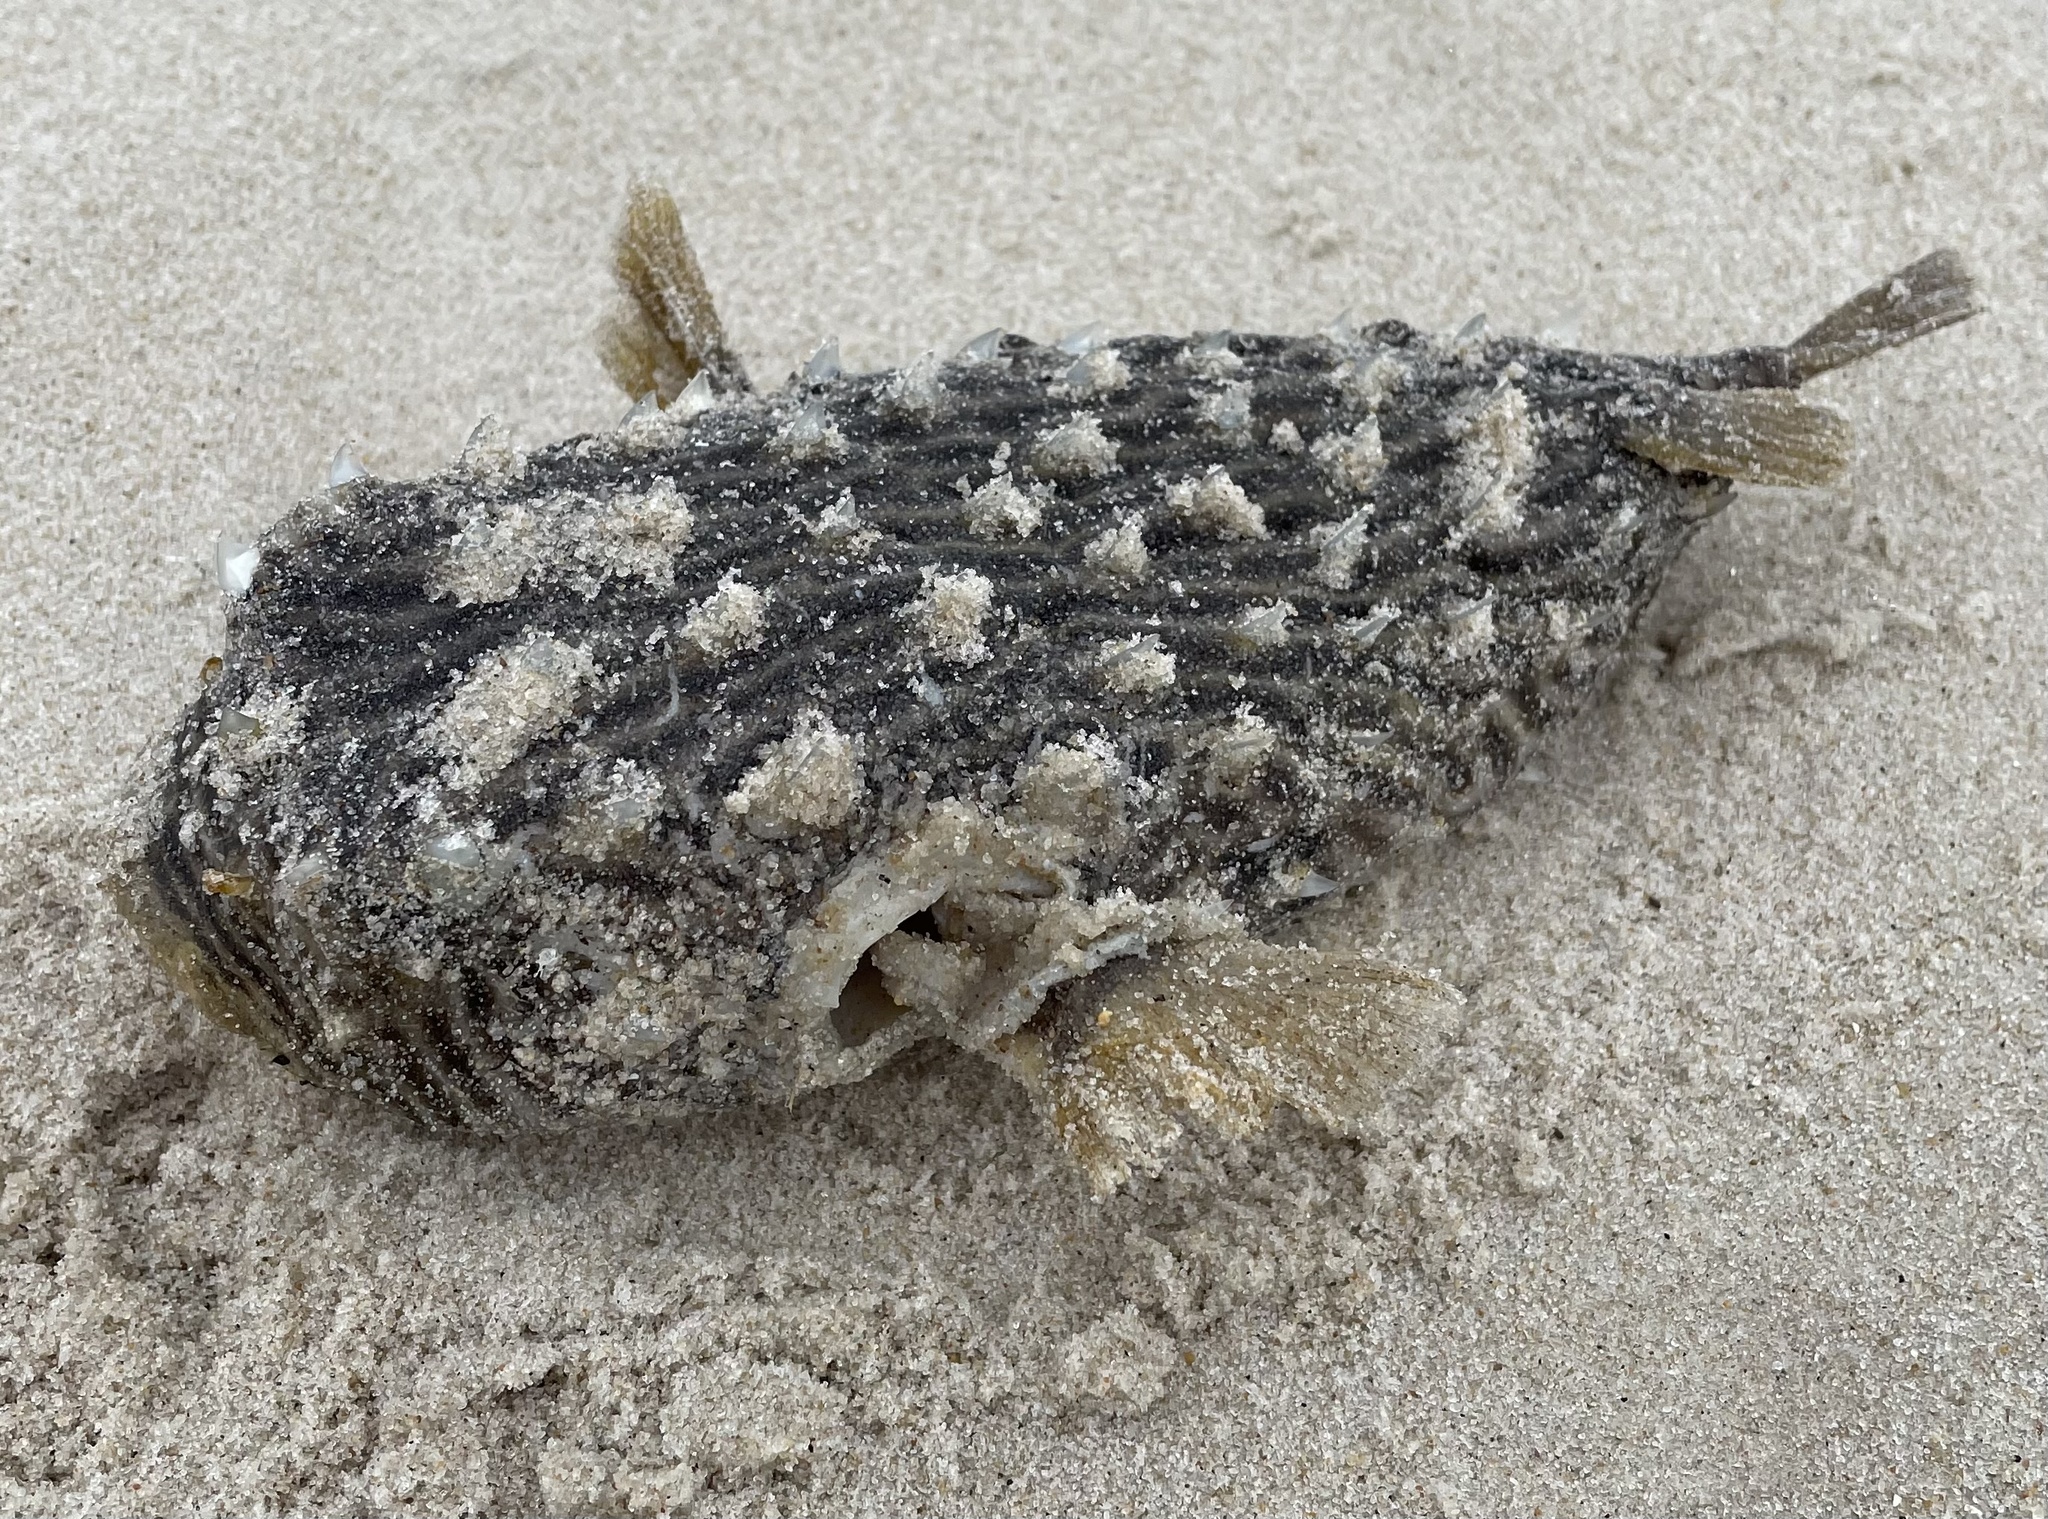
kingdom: Animalia
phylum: Chordata
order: Tetraodontiformes
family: Diodontidae
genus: Chilomycterus
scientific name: Chilomycterus schoepfii
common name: Striped burrfish
